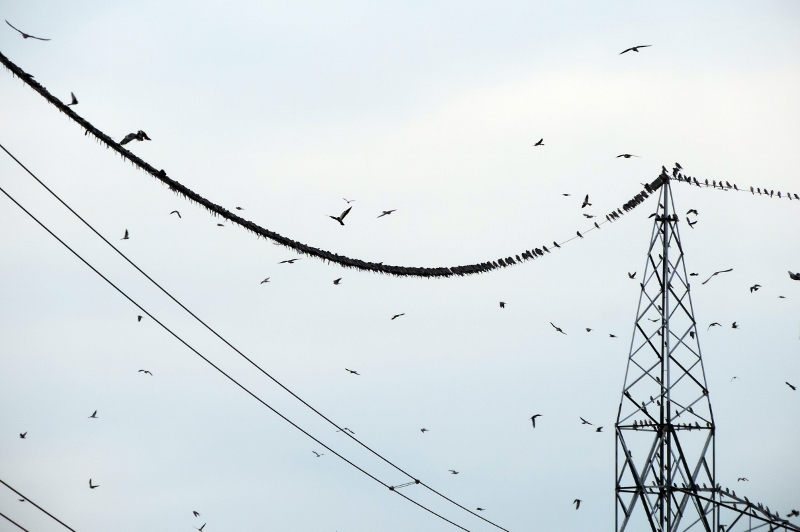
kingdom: Animalia
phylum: Chordata
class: Aves
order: Falconiformes
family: Falconidae
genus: Falco
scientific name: Falco amurensis
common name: Amur falcon
